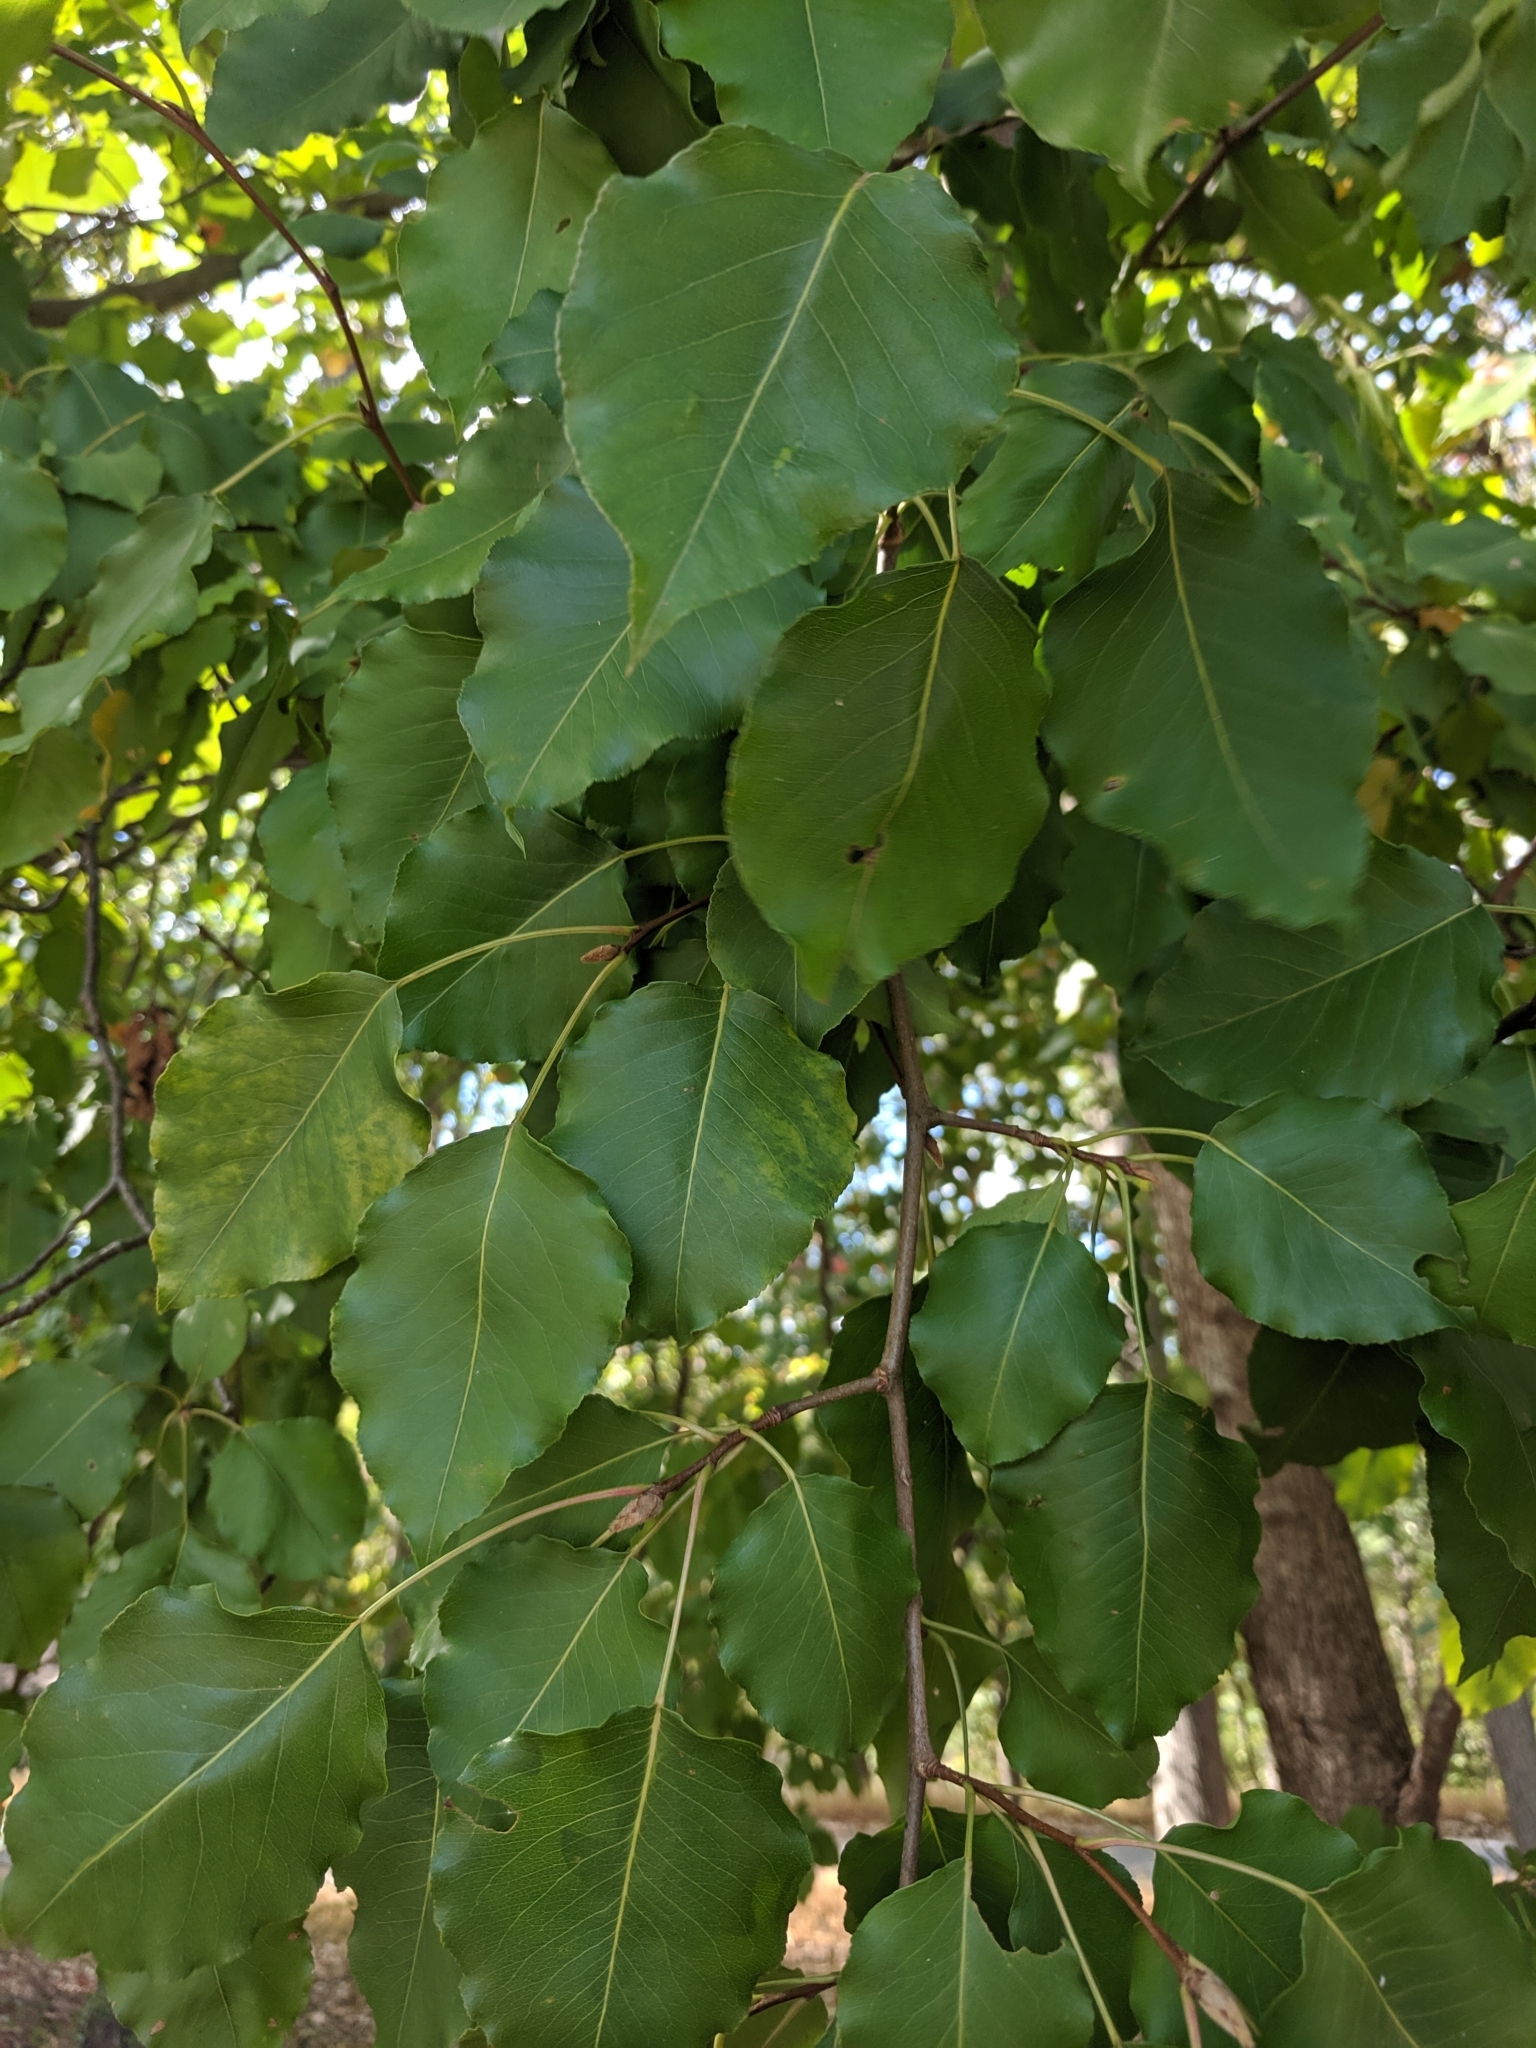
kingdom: Plantae
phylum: Tracheophyta
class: Magnoliopsida
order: Rosales
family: Rosaceae
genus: Pyrus
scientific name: Pyrus calleryana
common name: Callery pear
